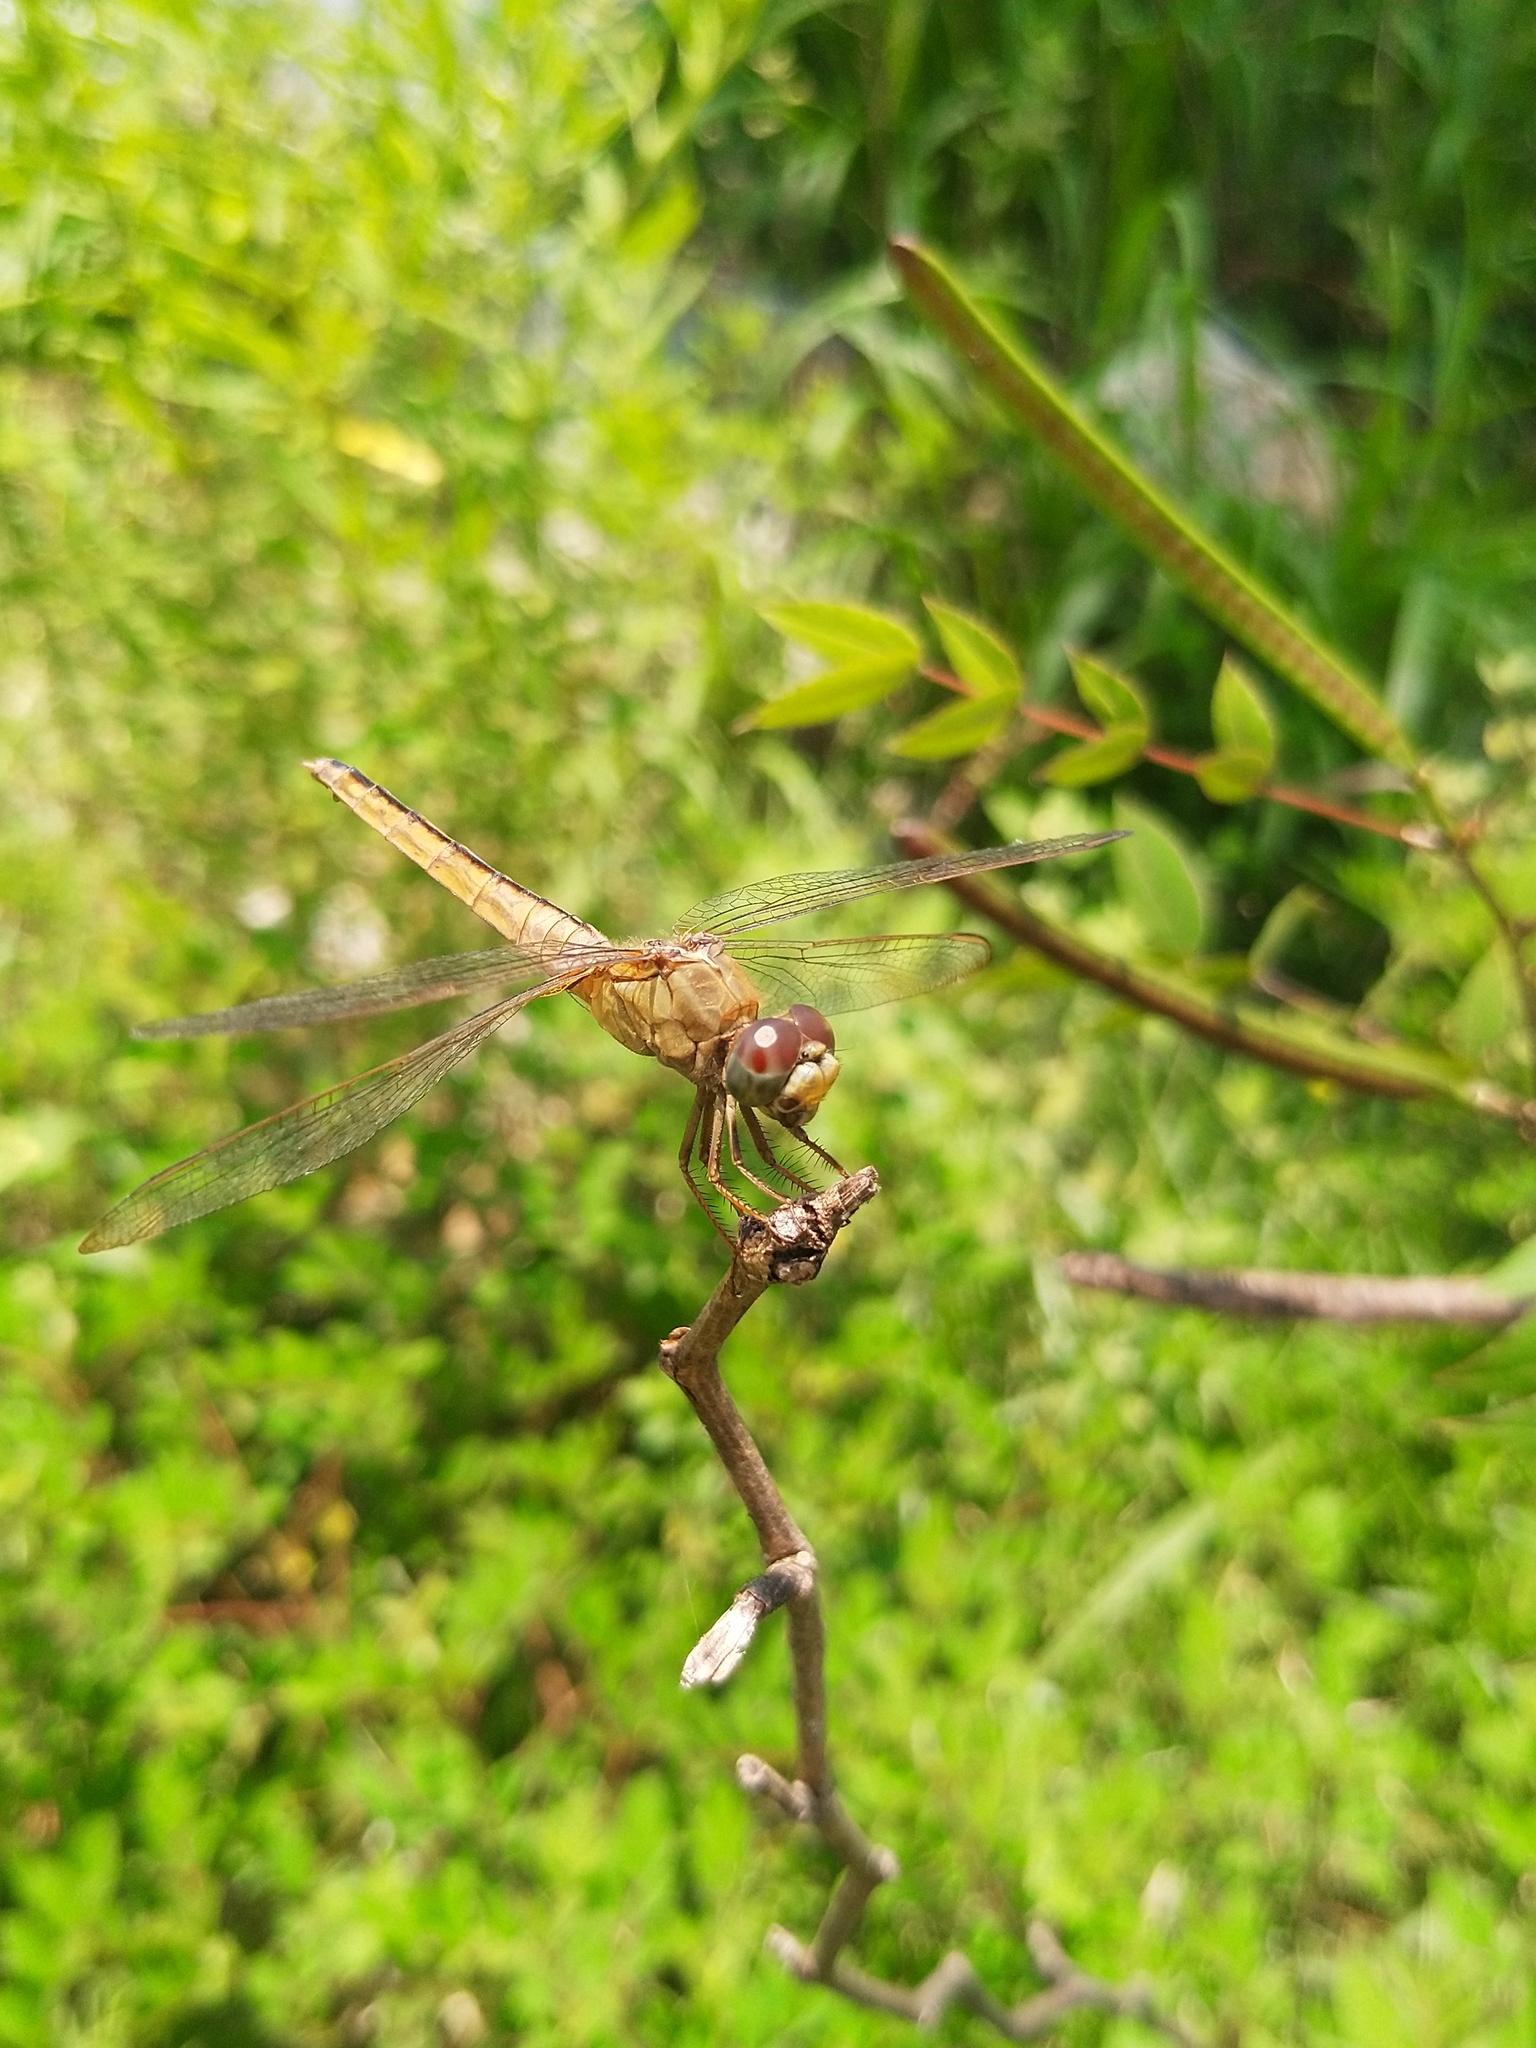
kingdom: Animalia
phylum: Arthropoda
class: Insecta
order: Odonata
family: Libellulidae
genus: Crocothemis
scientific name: Crocothemis servilia
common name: Scarlet skimmer
